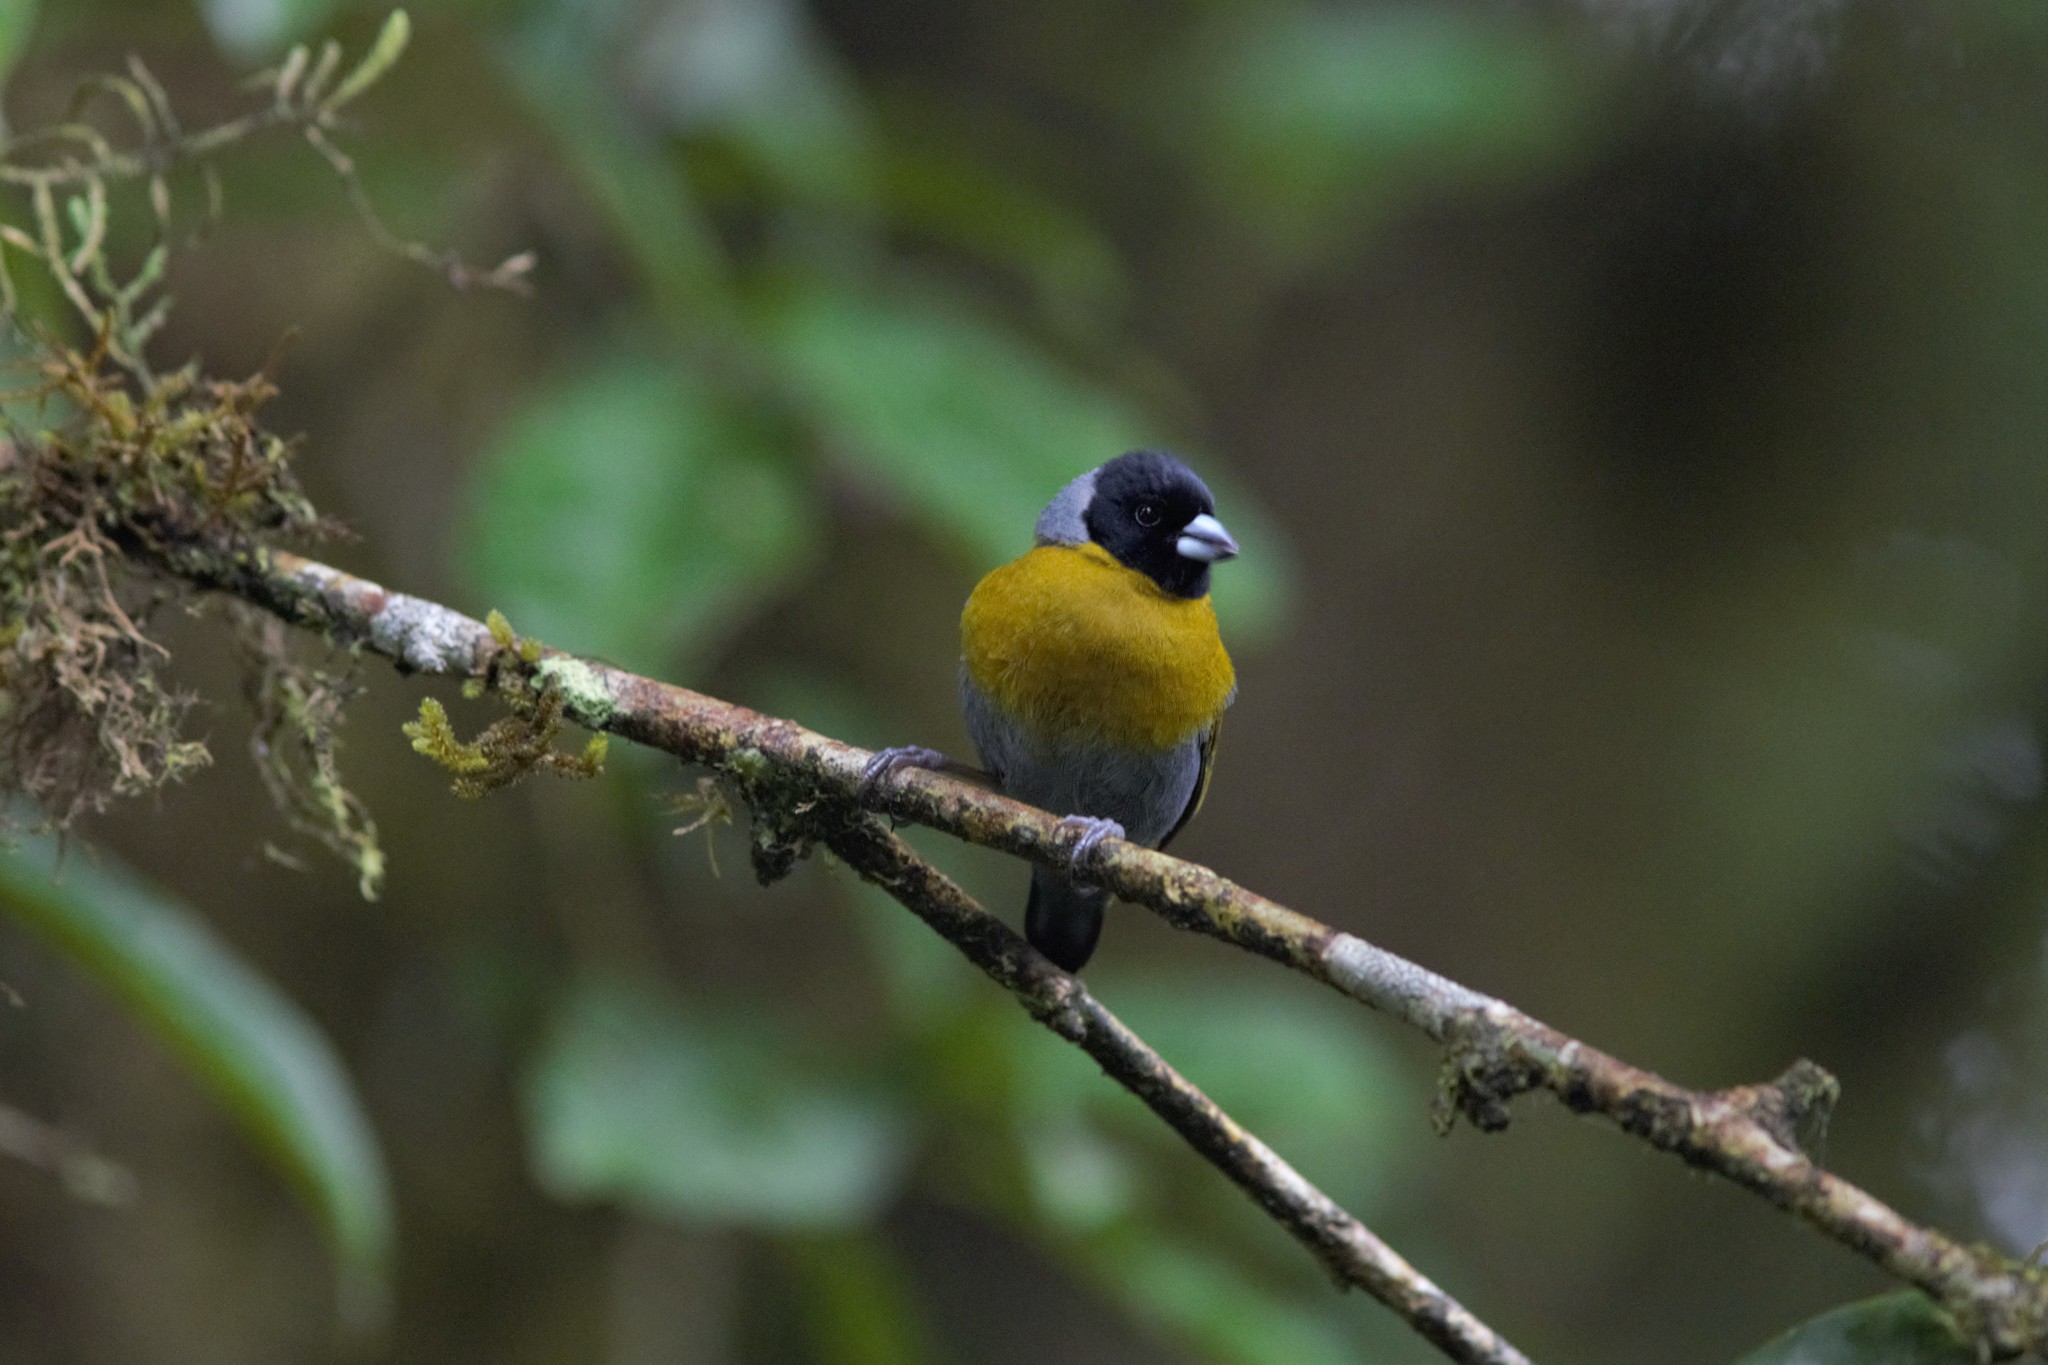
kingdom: Animalia
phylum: Chordata
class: Aves
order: Passeriformes
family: Estrildidae
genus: Nesocharis
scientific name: Nesocharis shelleyi
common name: Shelley's oliveback
